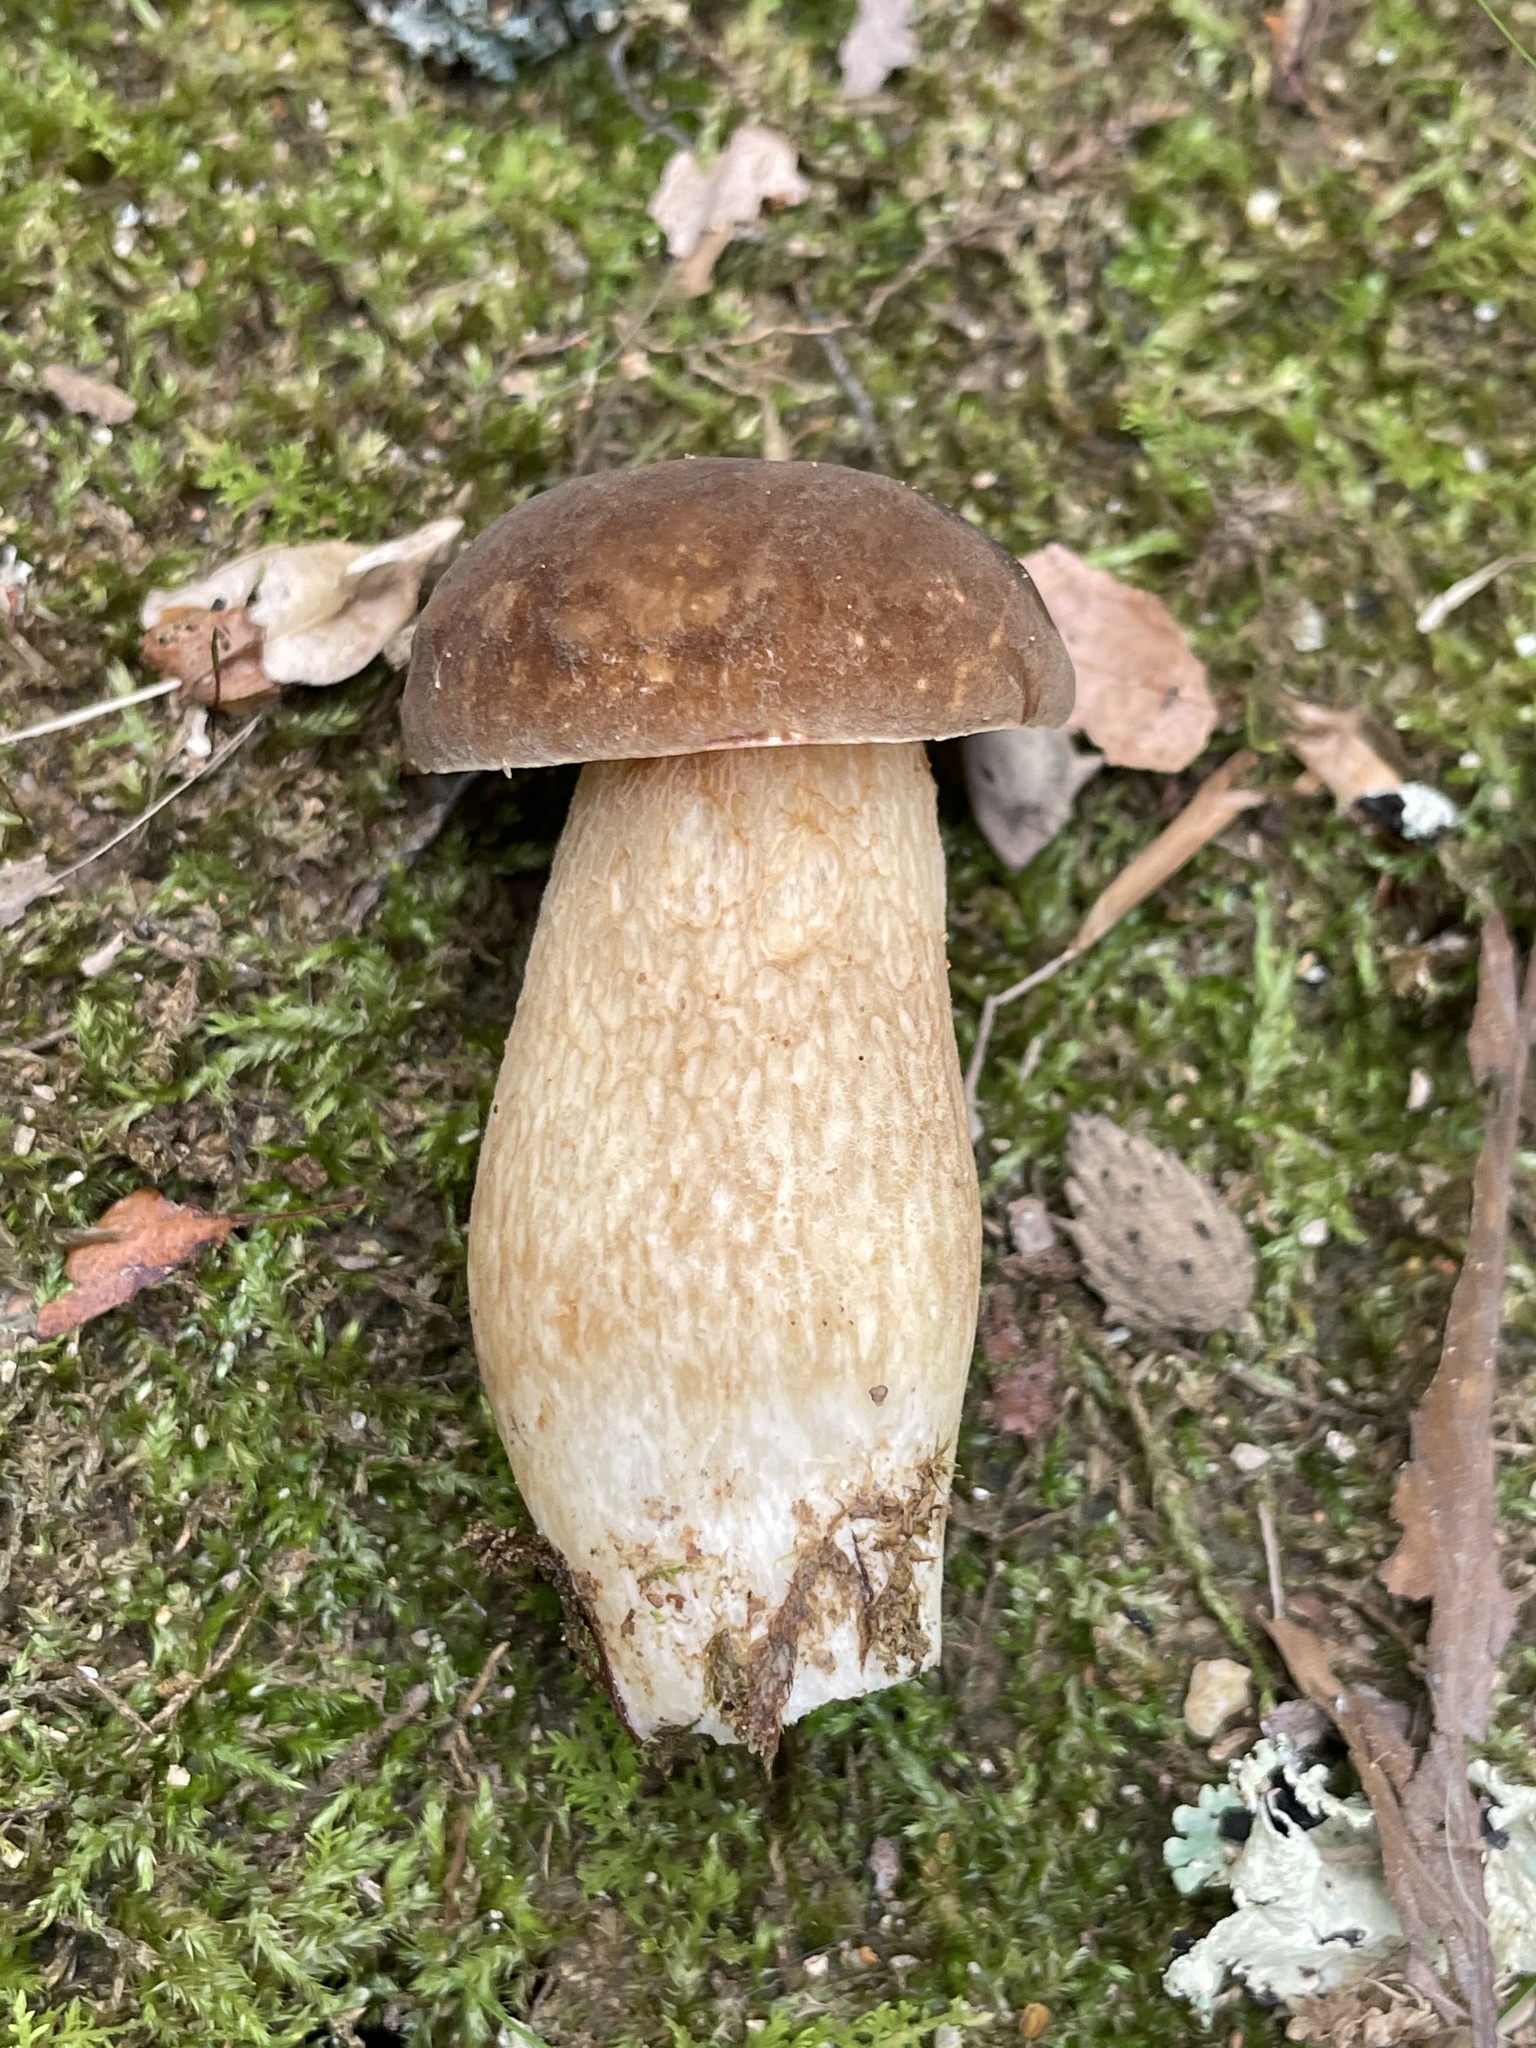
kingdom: Fungi
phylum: Basidiomycota
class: Agaricomycetes
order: Boletales
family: Boletaceae
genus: Boletus
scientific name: Boletus variipes
